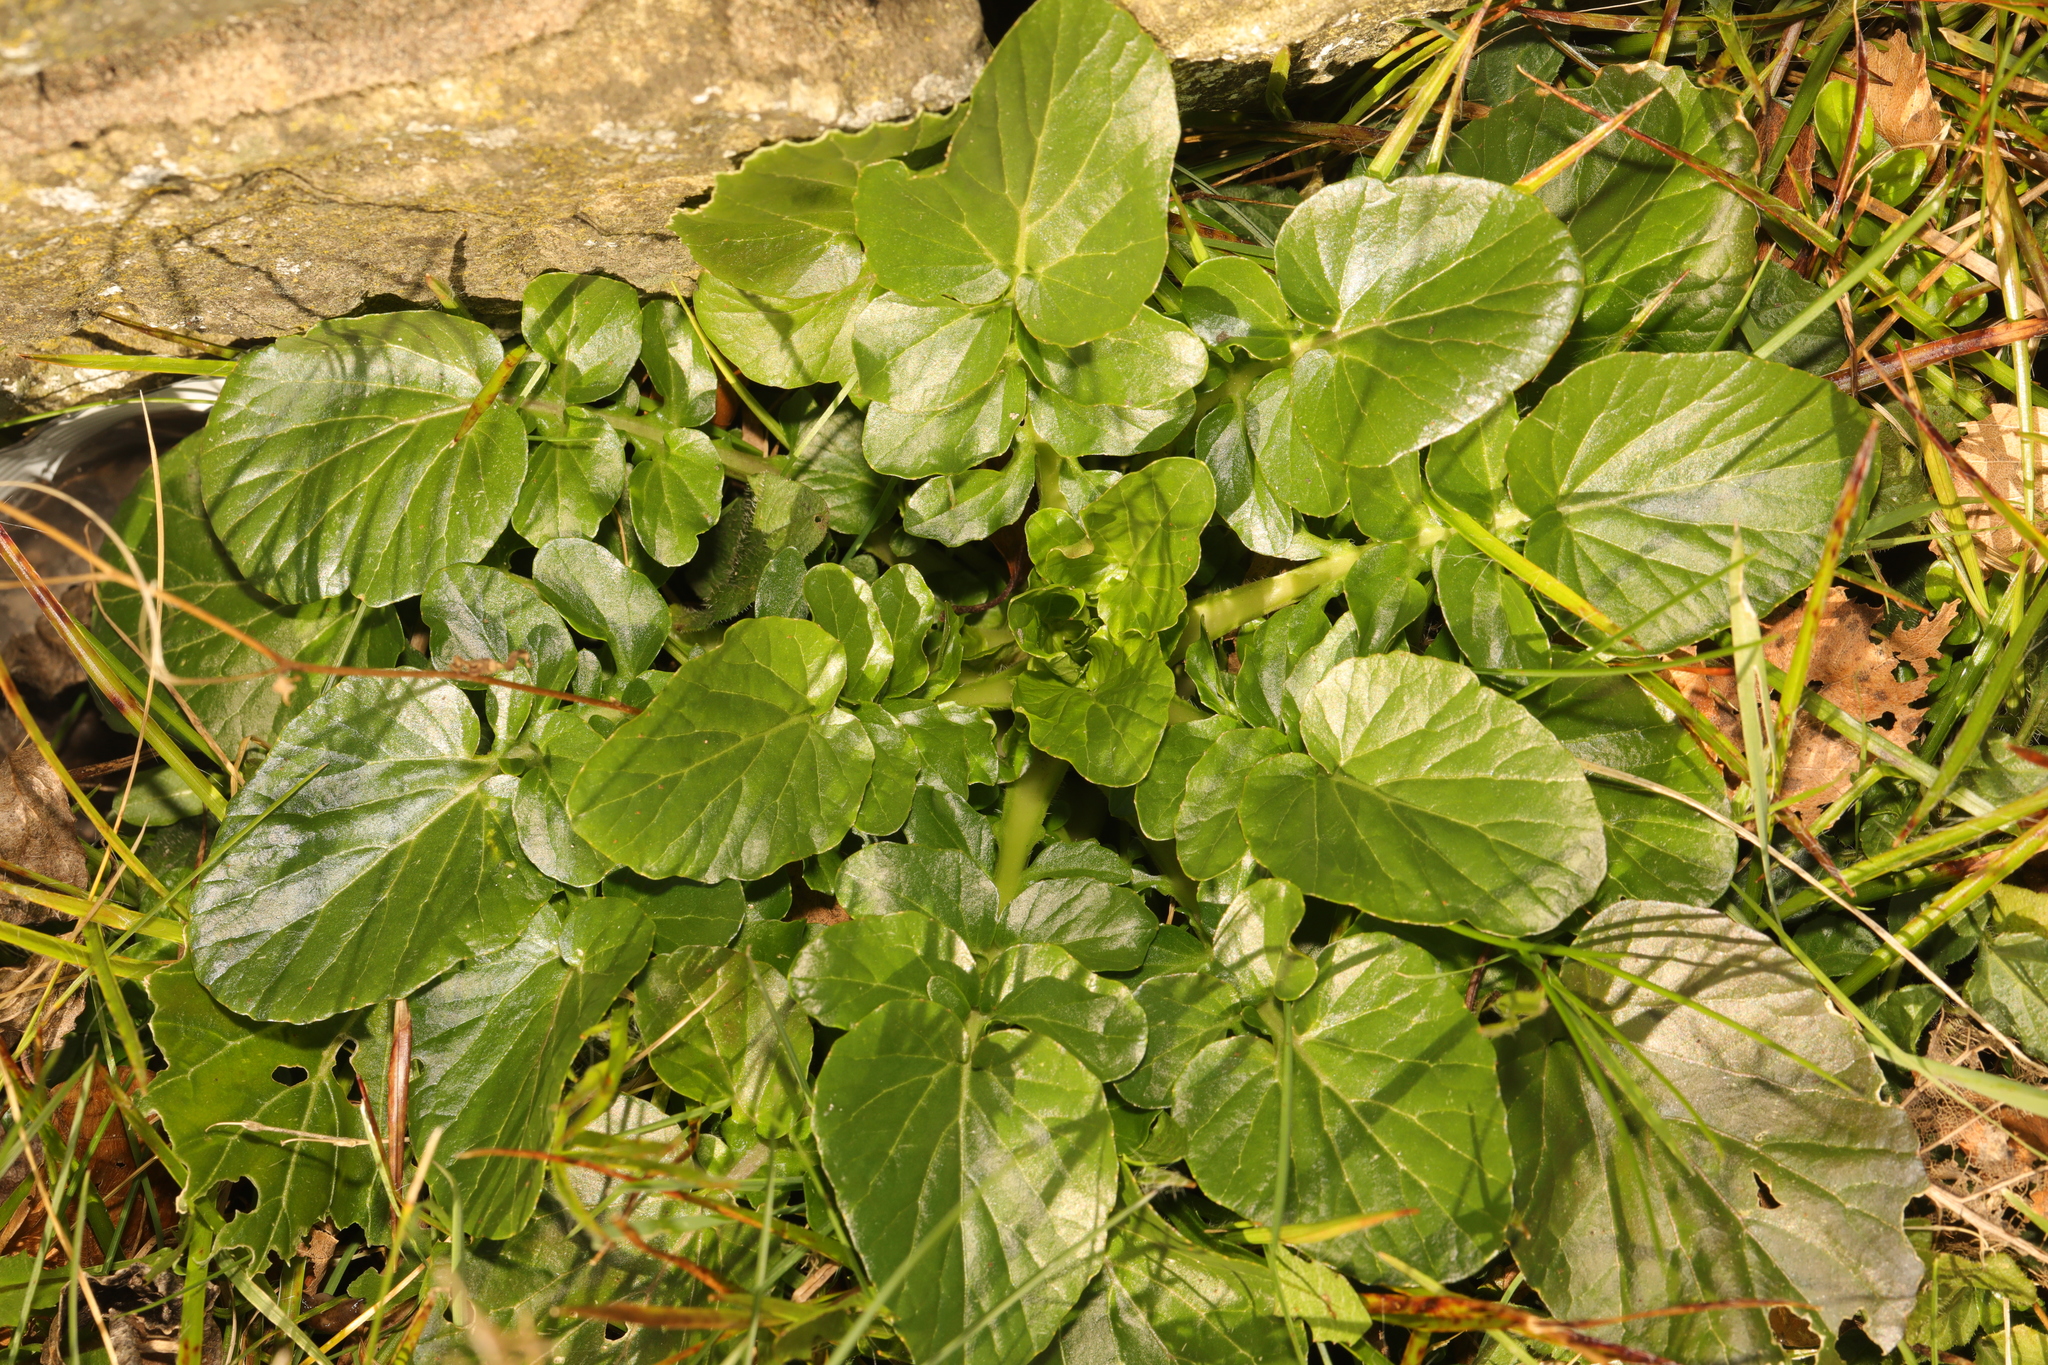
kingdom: Plantae
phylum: Tracheophyta
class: Magnoliopsida
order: Brassicales
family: Brassicaceae
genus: Barbarea
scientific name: Barbarea vulgaris
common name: Cressy-greens
